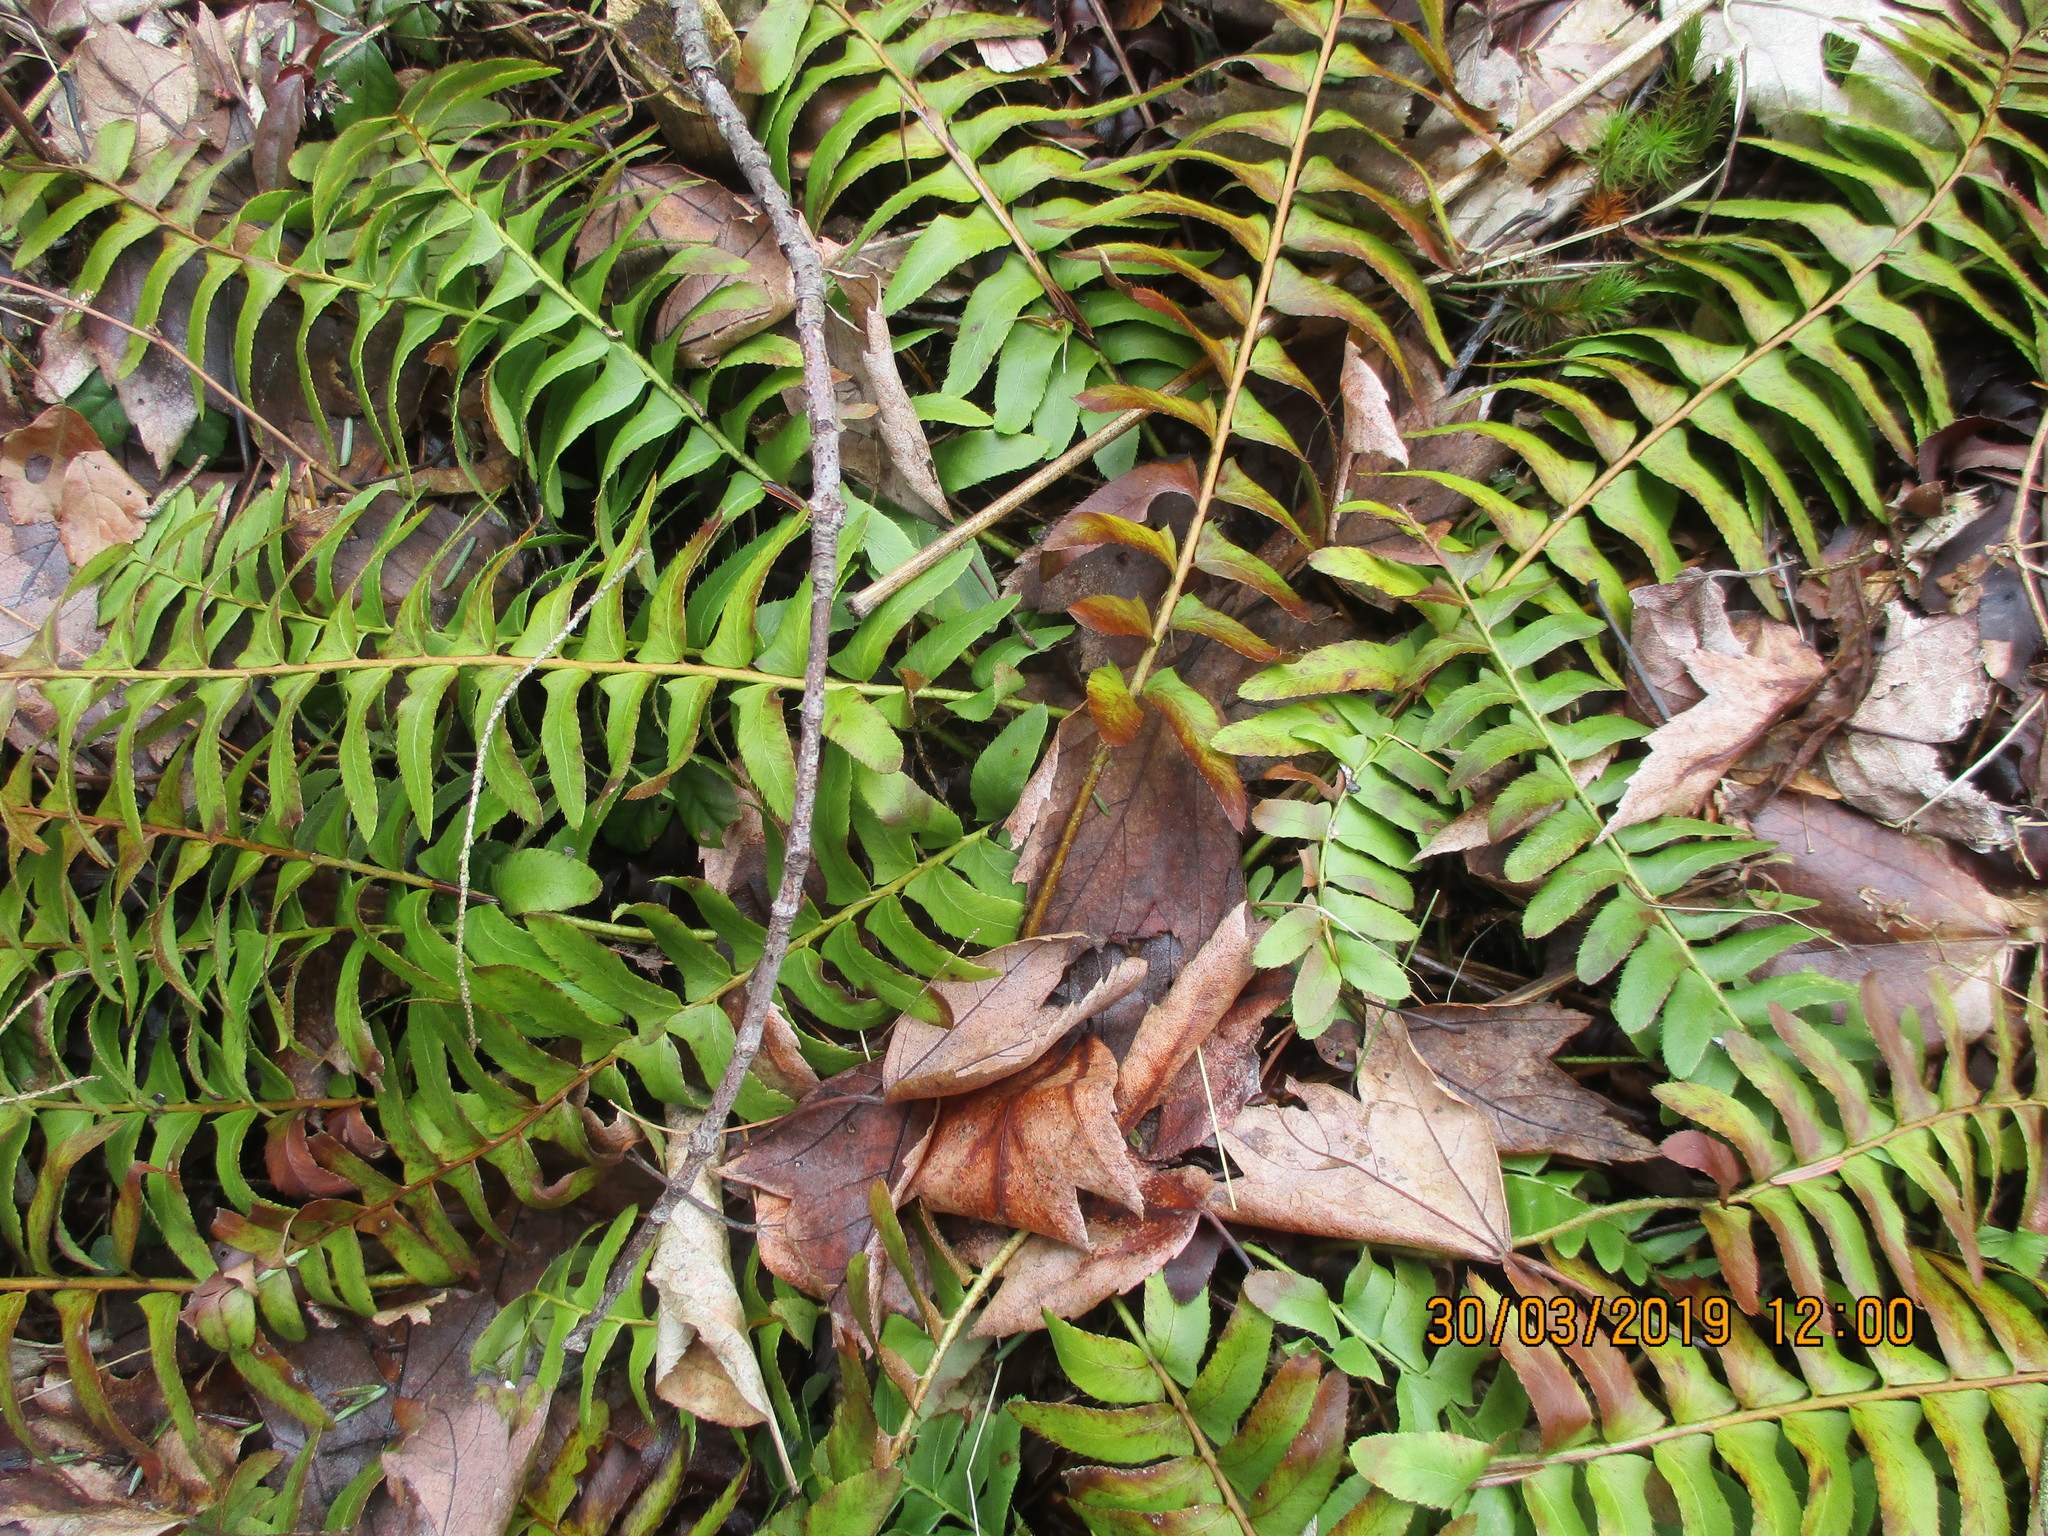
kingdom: Plantae
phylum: Tracheophyta
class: Polypodiopsida
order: Polypodiales
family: Dryopteridaceae
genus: Polystichum
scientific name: Polystichum acrostichoides
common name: Christmas fern
